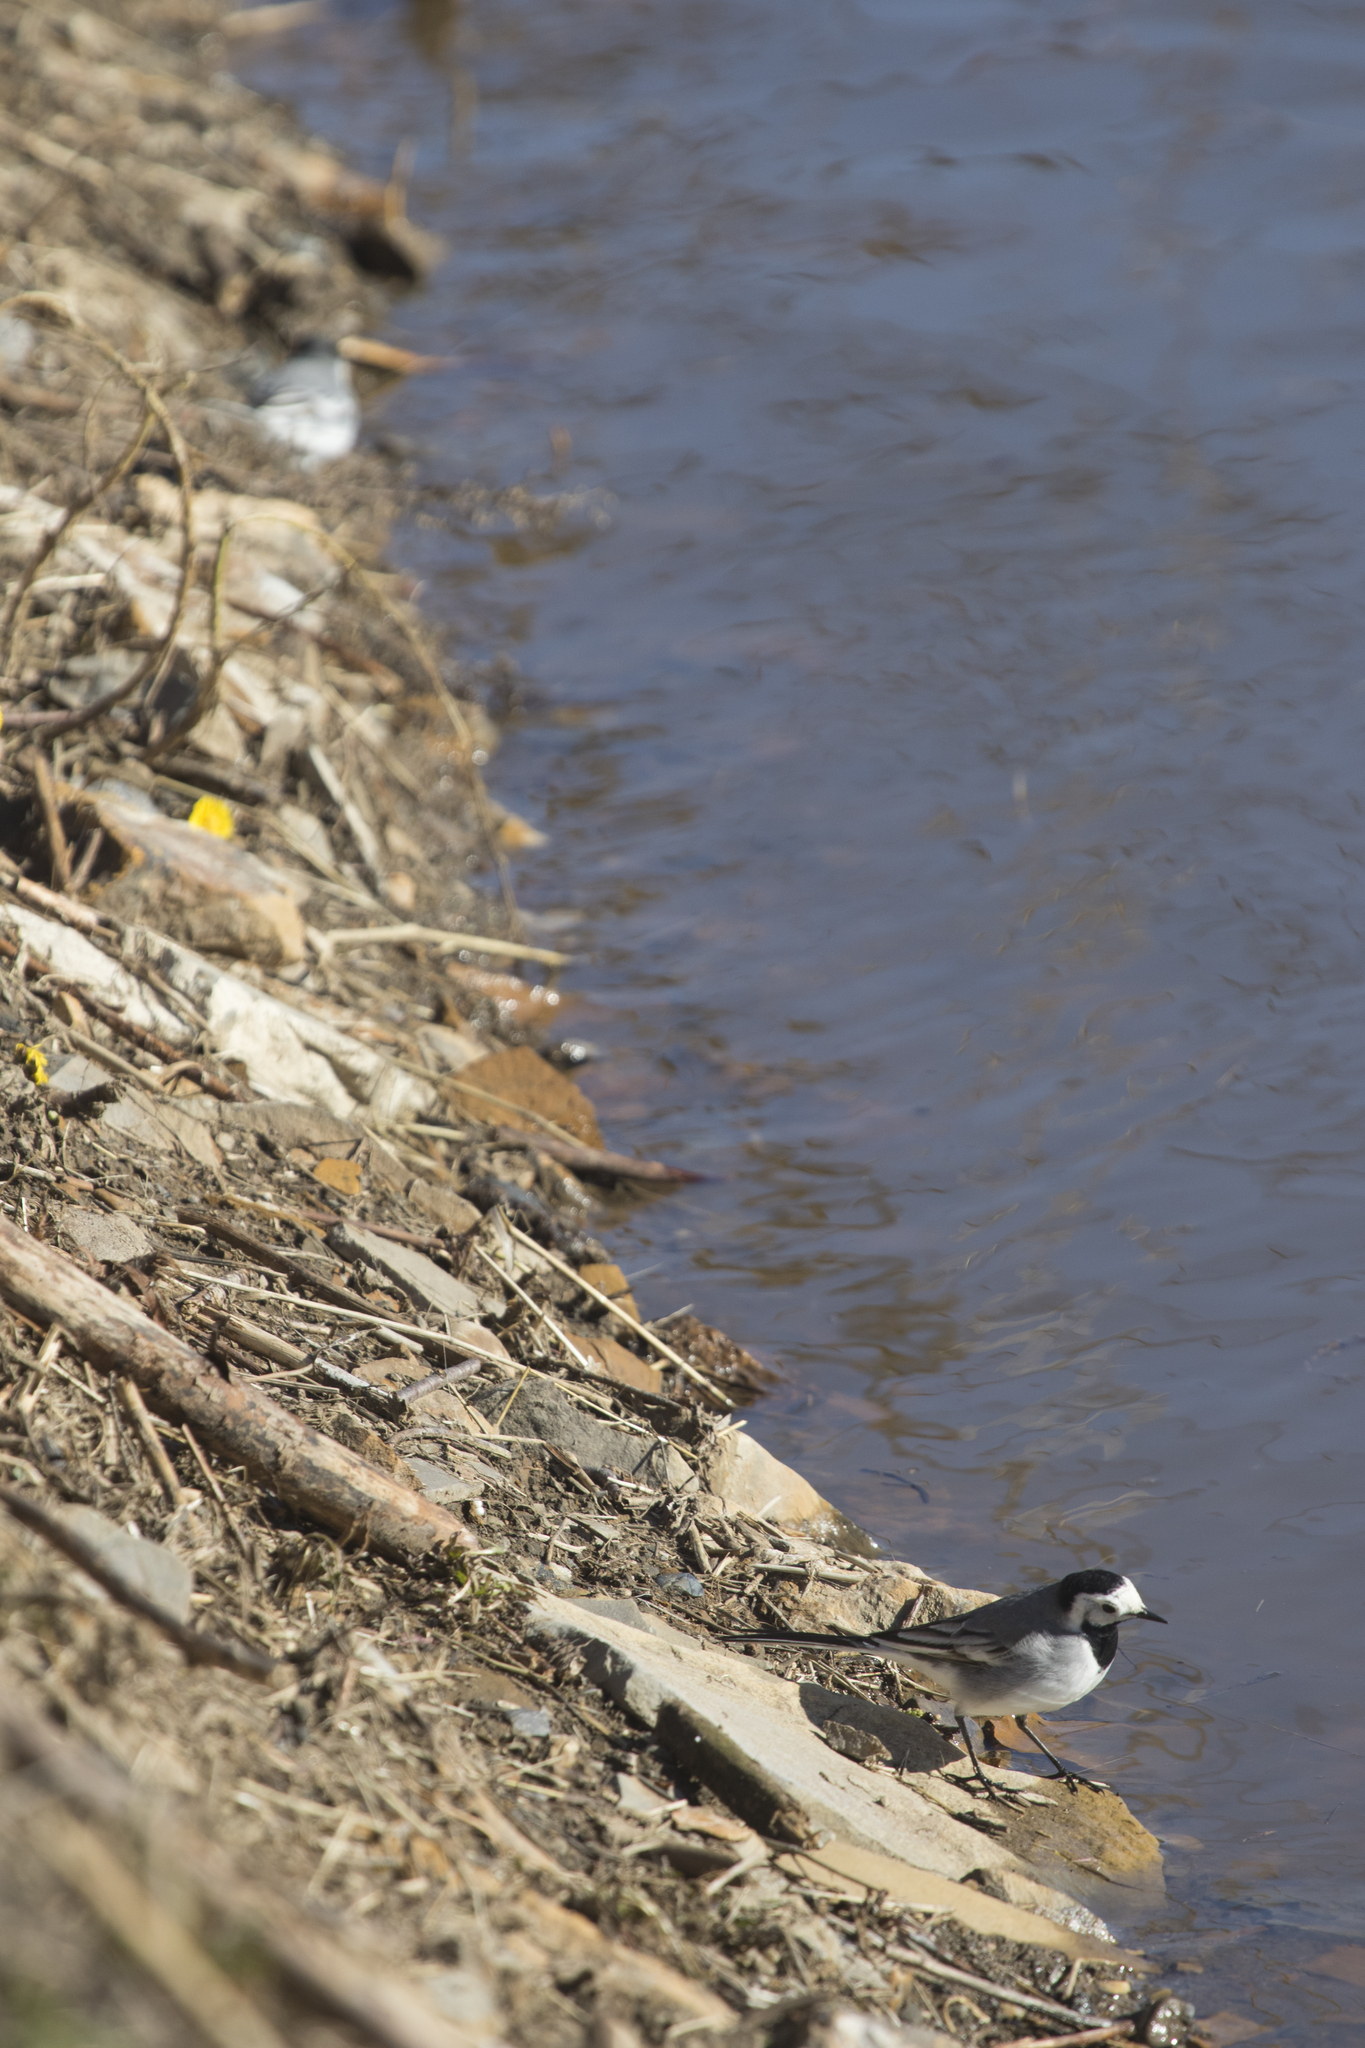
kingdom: Animalia
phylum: Chordata
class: Aves
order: Passeriformes
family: Motacillidae
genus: Motacilla
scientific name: Motacilla alba
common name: White wagtail
